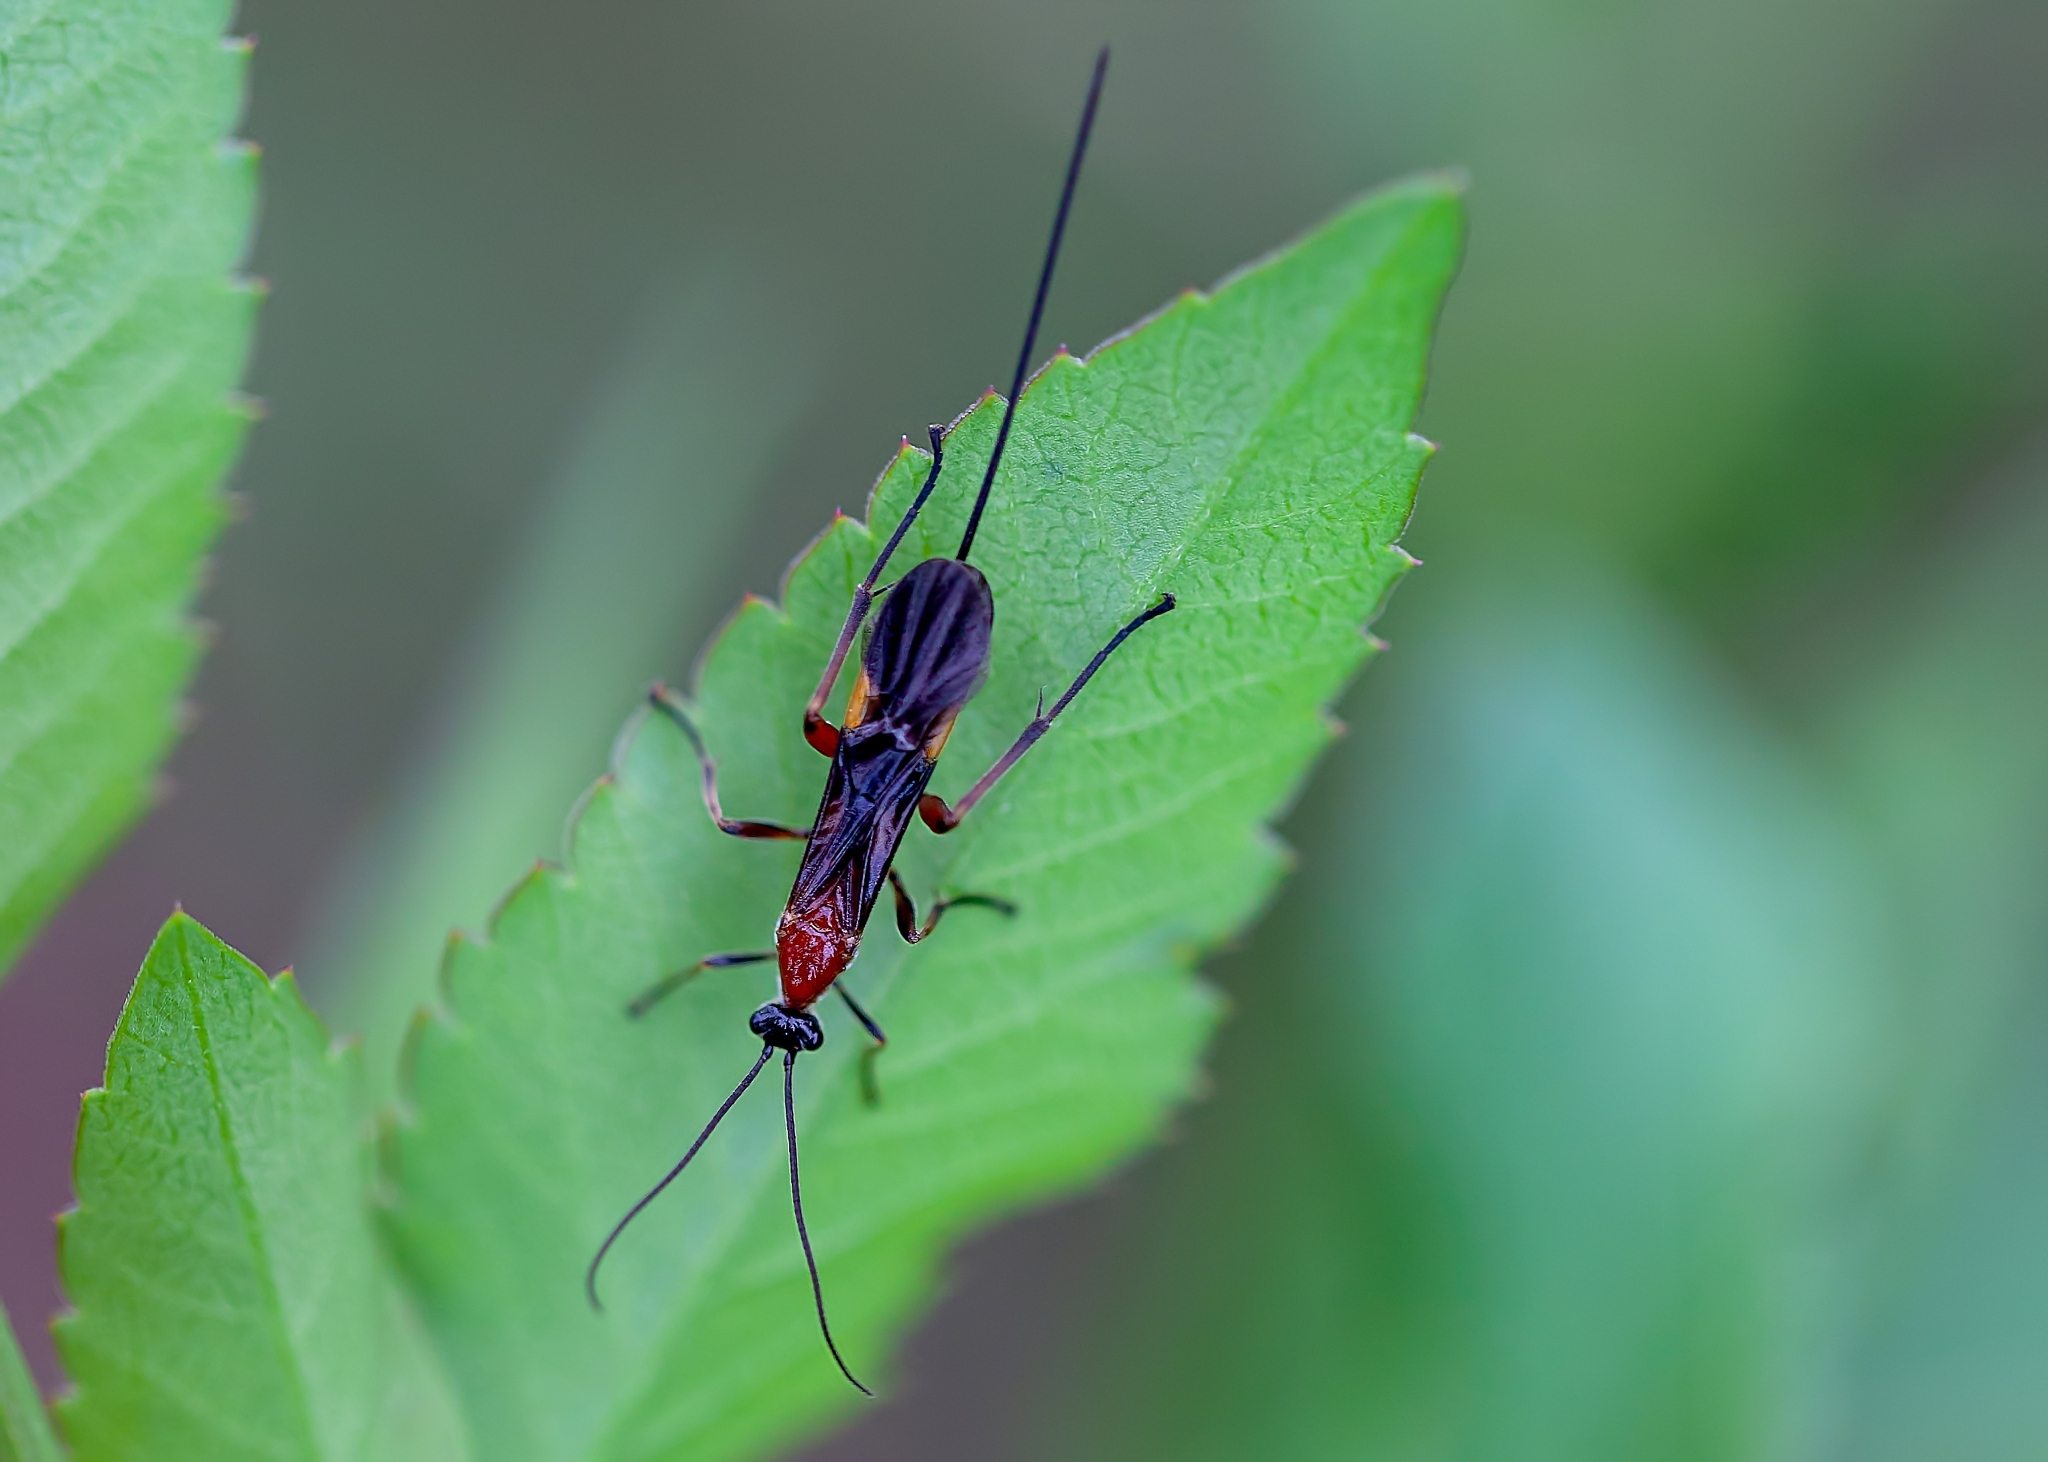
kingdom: Animalia
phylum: Arthropoda
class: Insecta
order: Hymenoptera
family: Braconidae
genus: Alabagrus
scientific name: Alabagrus stigma
